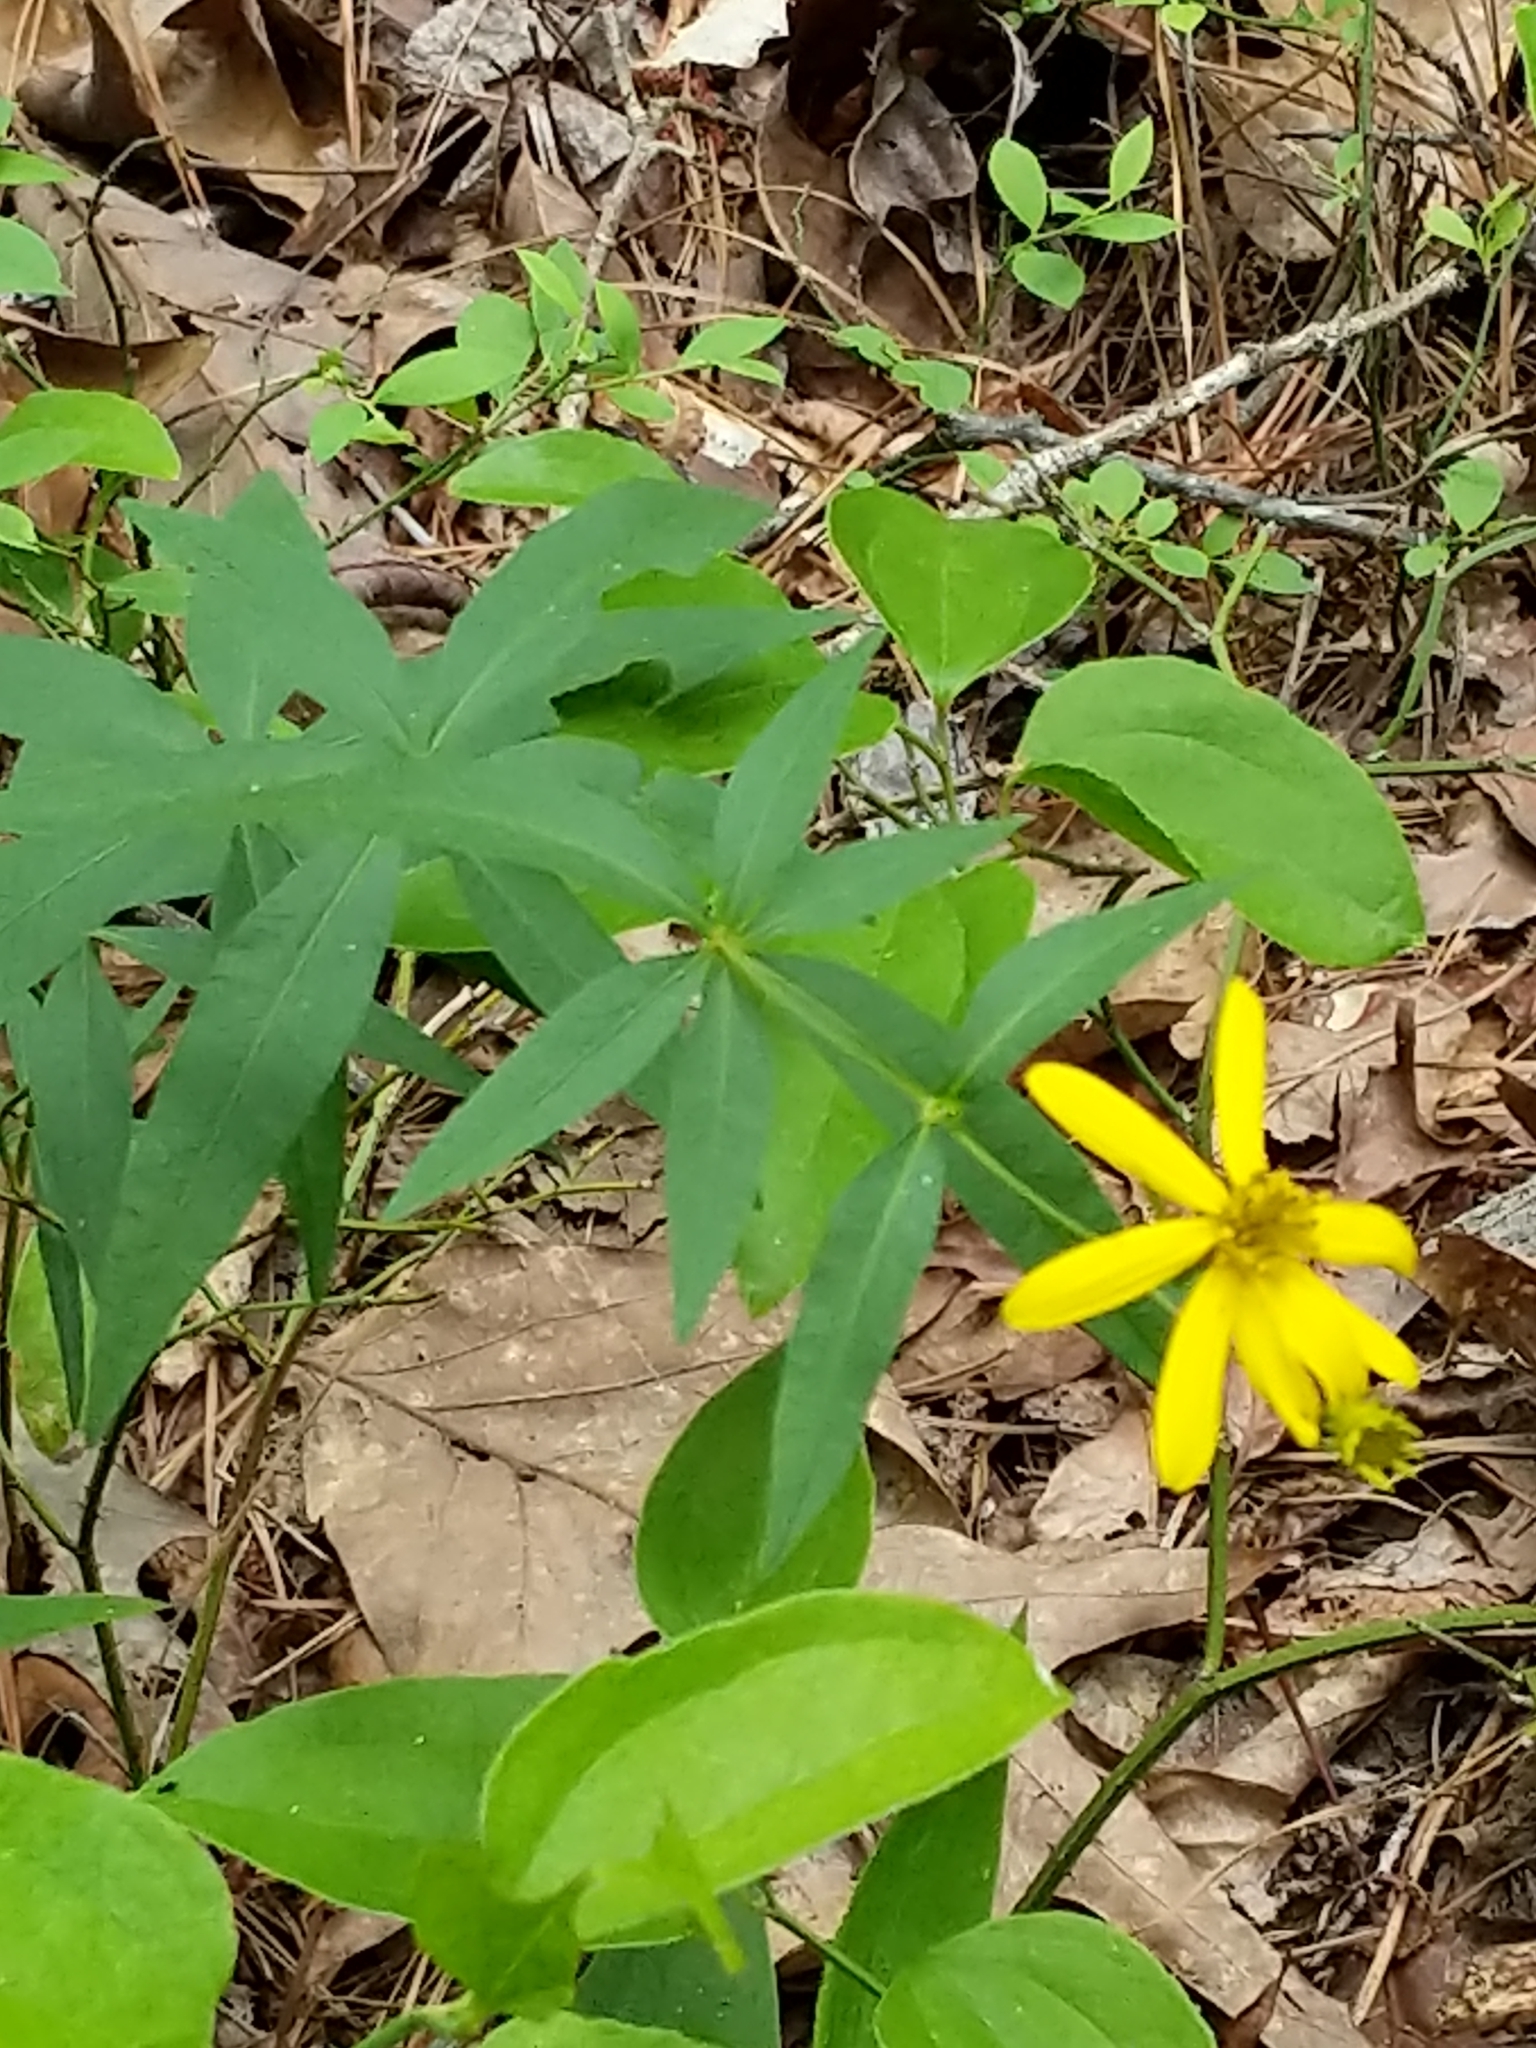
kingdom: Plantae
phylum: Tracheophyta
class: Magnoliopsida
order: Asterales
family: Asteraceae
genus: Coreopsis
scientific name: Coreopsis major
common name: Forest tickseed
